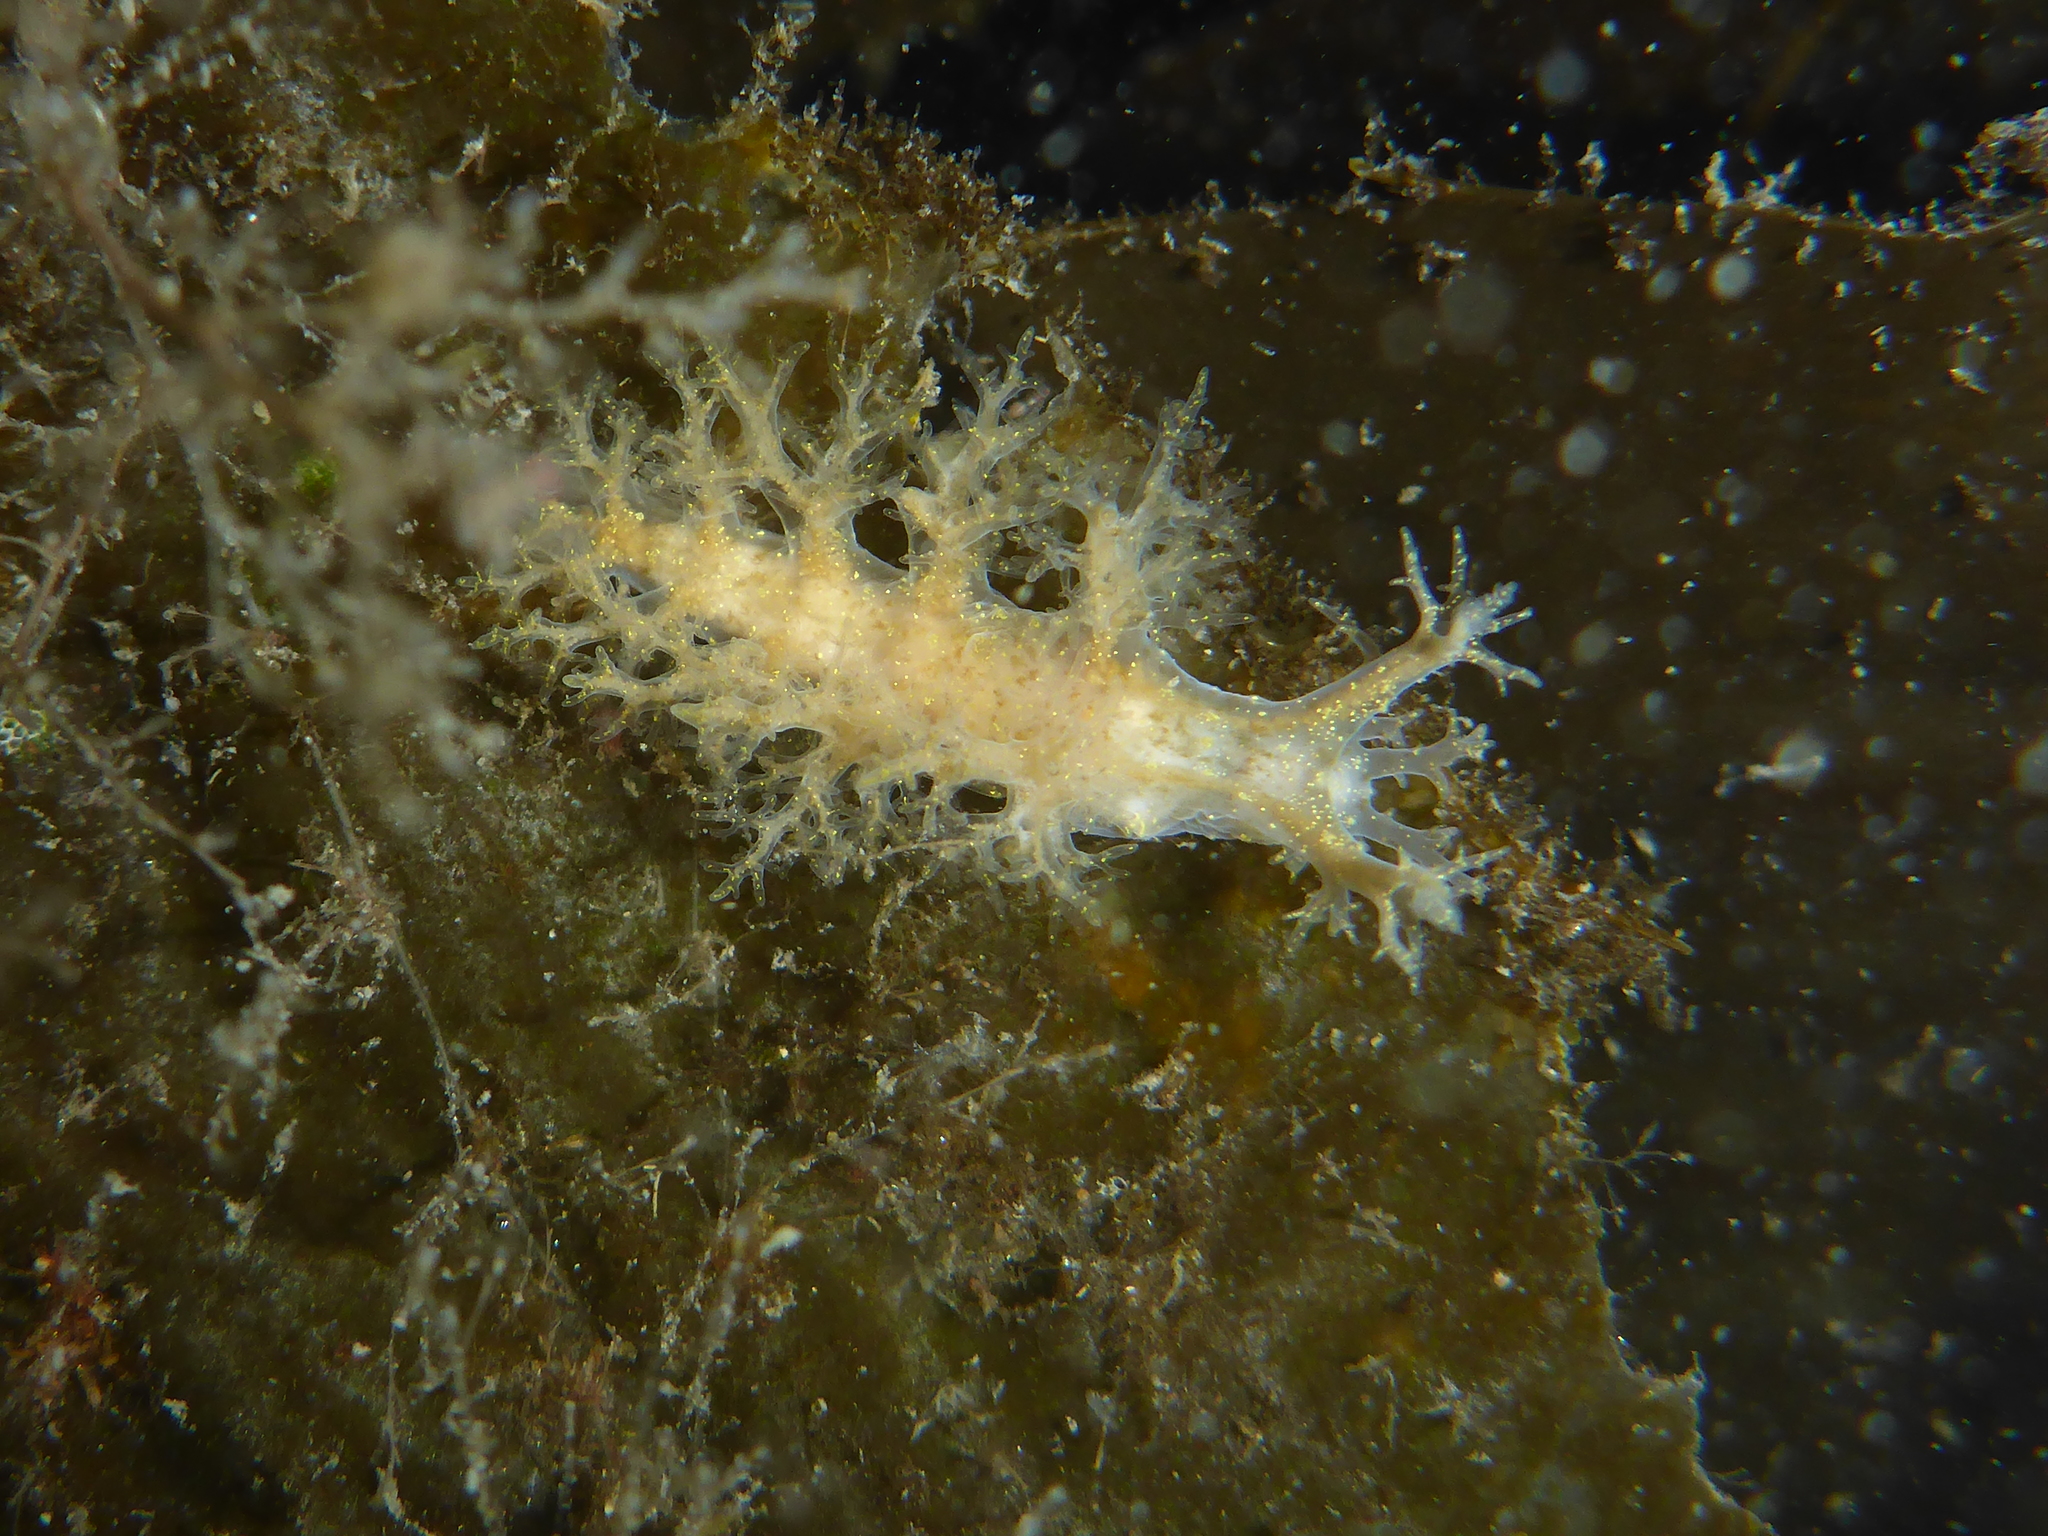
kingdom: Animalia
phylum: Mollusca
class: Gastropoda
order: Nudibranchia
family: Dendronotidae
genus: Dendronotus
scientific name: Dendronotus venustus
